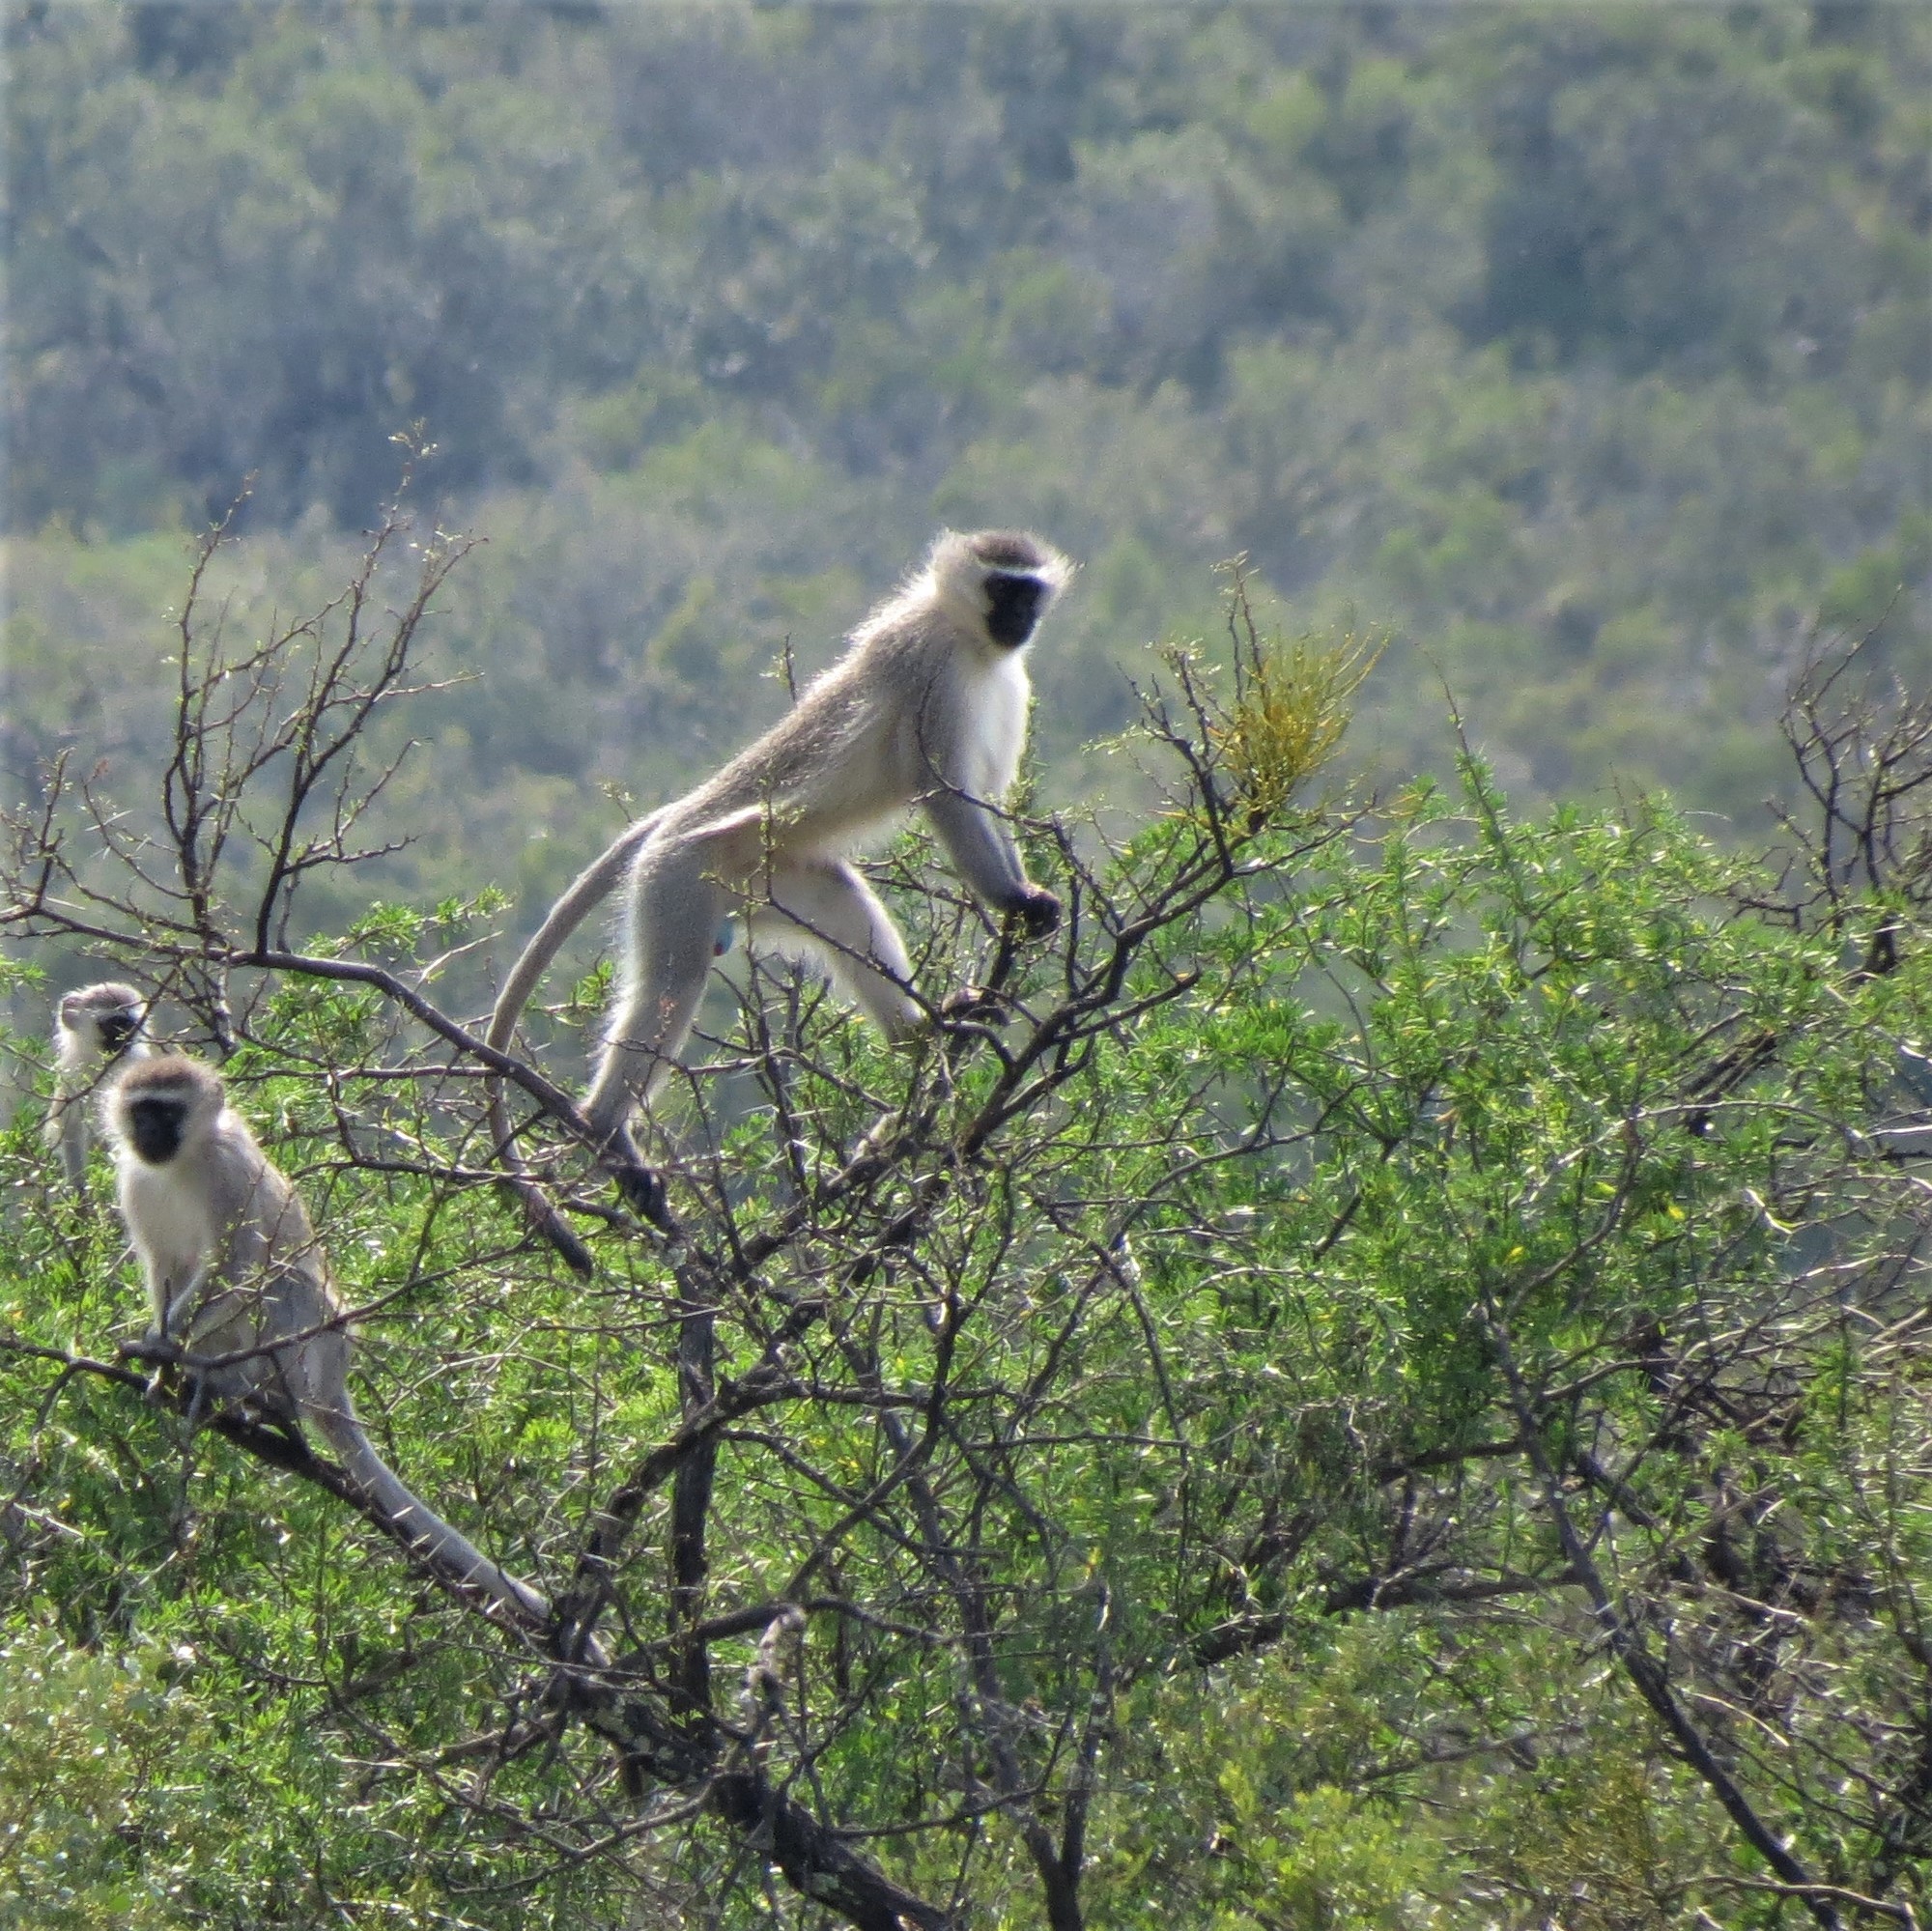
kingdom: Animalia
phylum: Chordata
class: Mammalia
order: Primates
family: Cercopithecidae
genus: Chlorocebus
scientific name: Chlorocebus pygerythrus
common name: Vervet monkey
